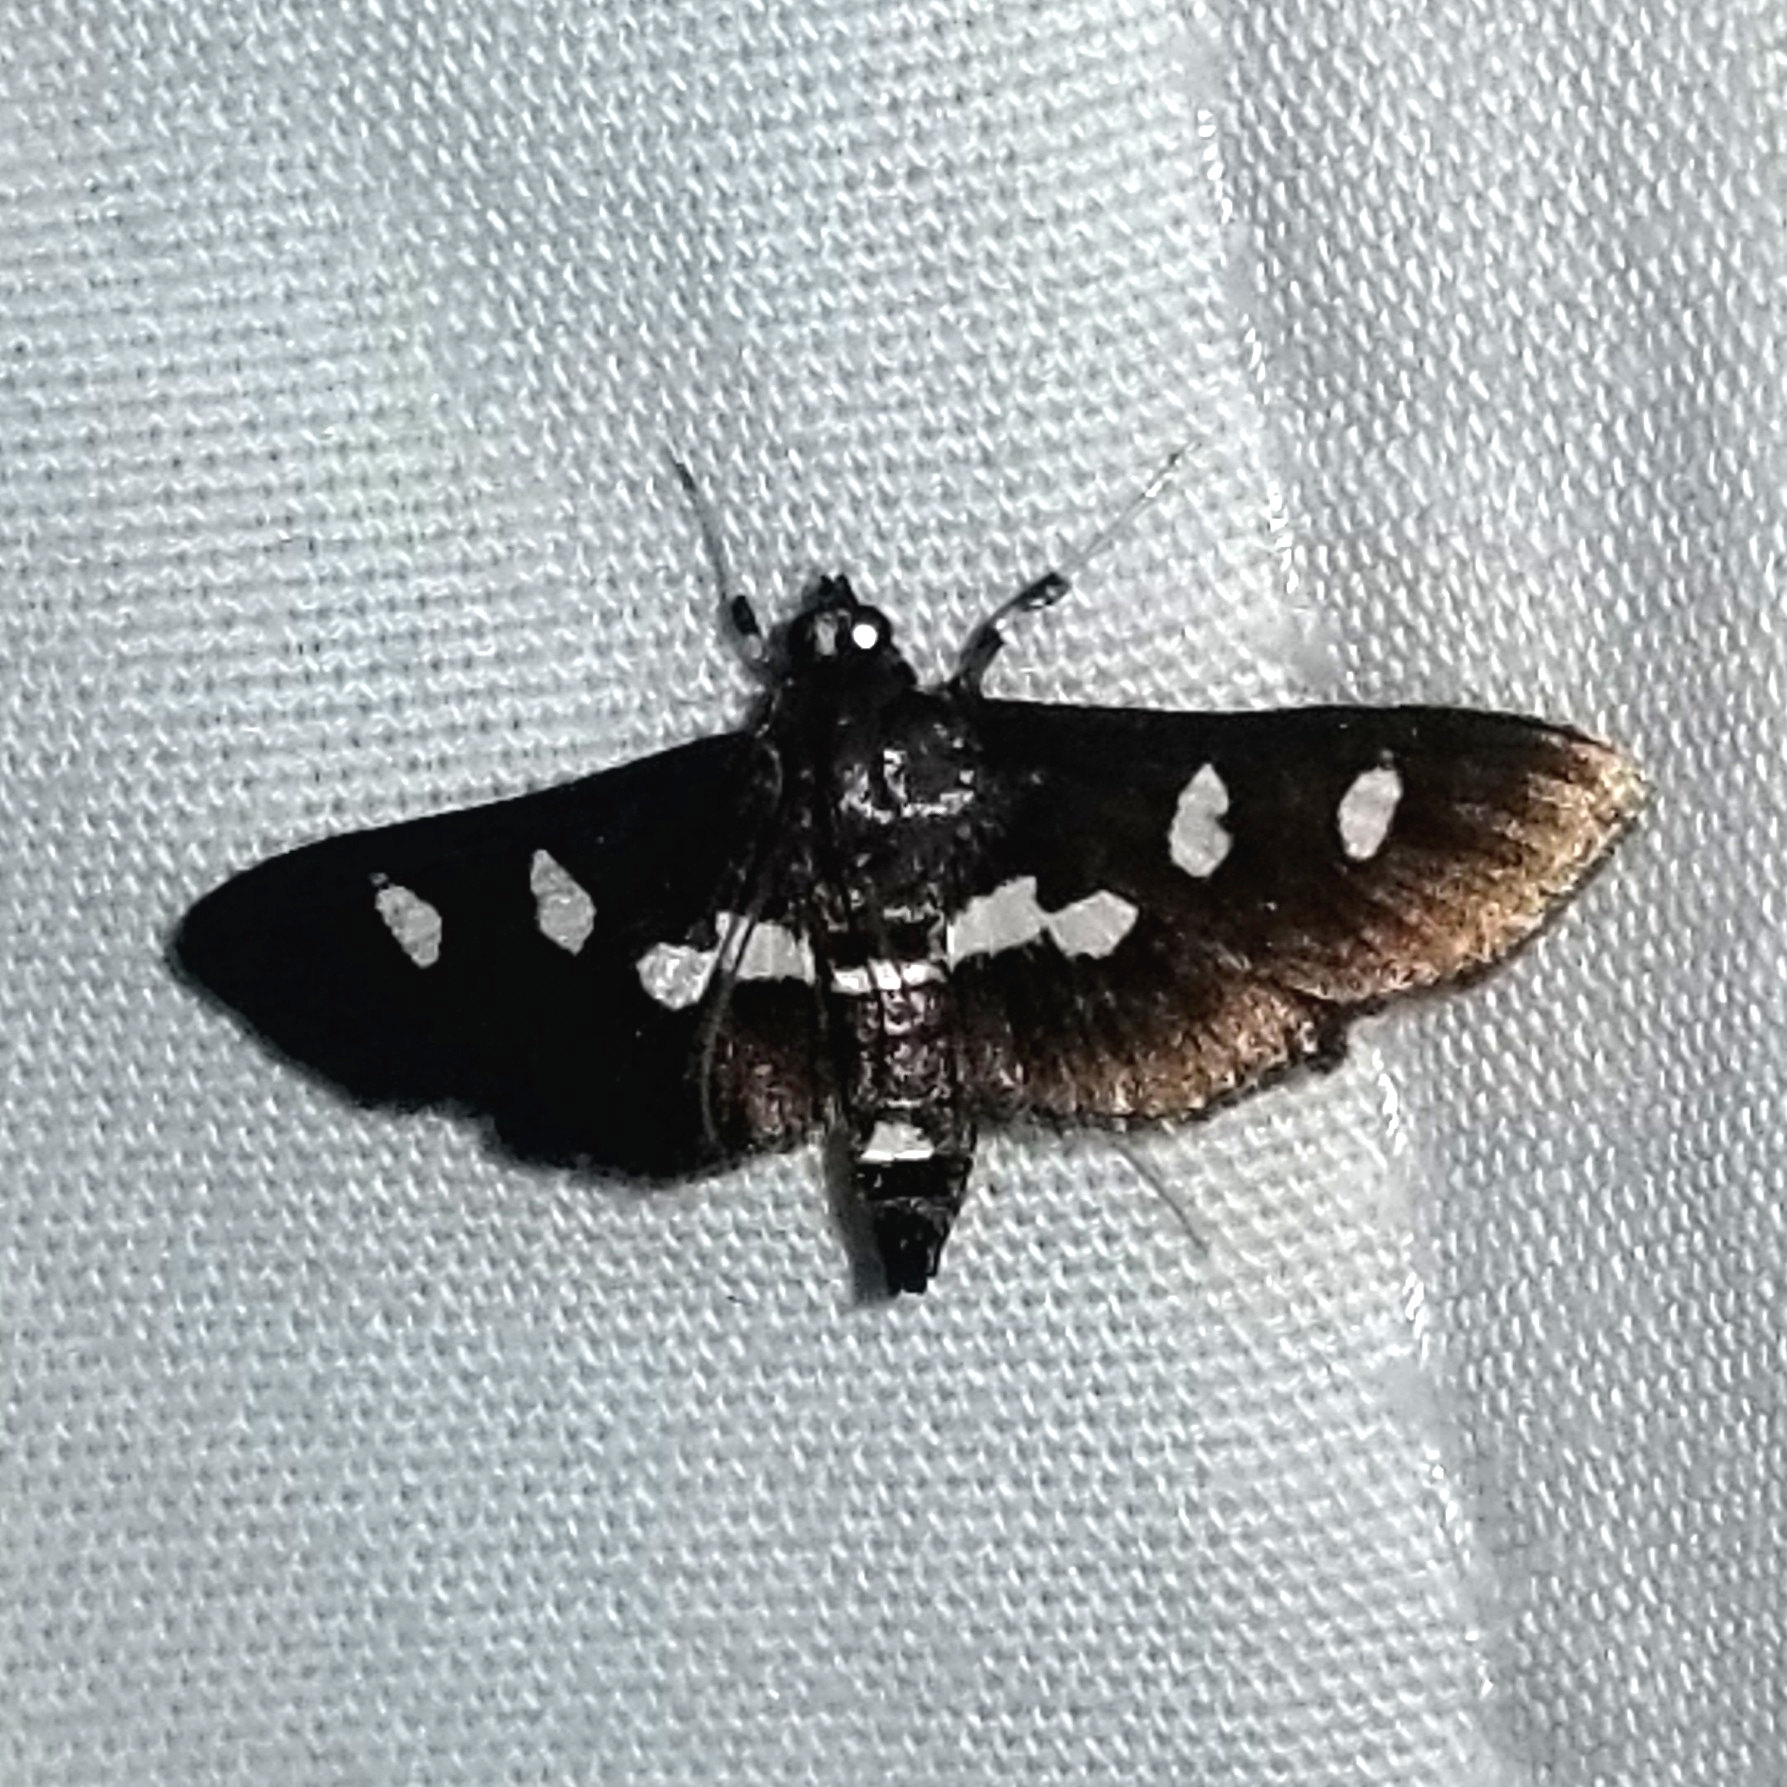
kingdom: Animalia
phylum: Arthropoda
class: Insecta
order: Lepidoptera
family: Crambidae
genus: Desmia
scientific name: Desmia
